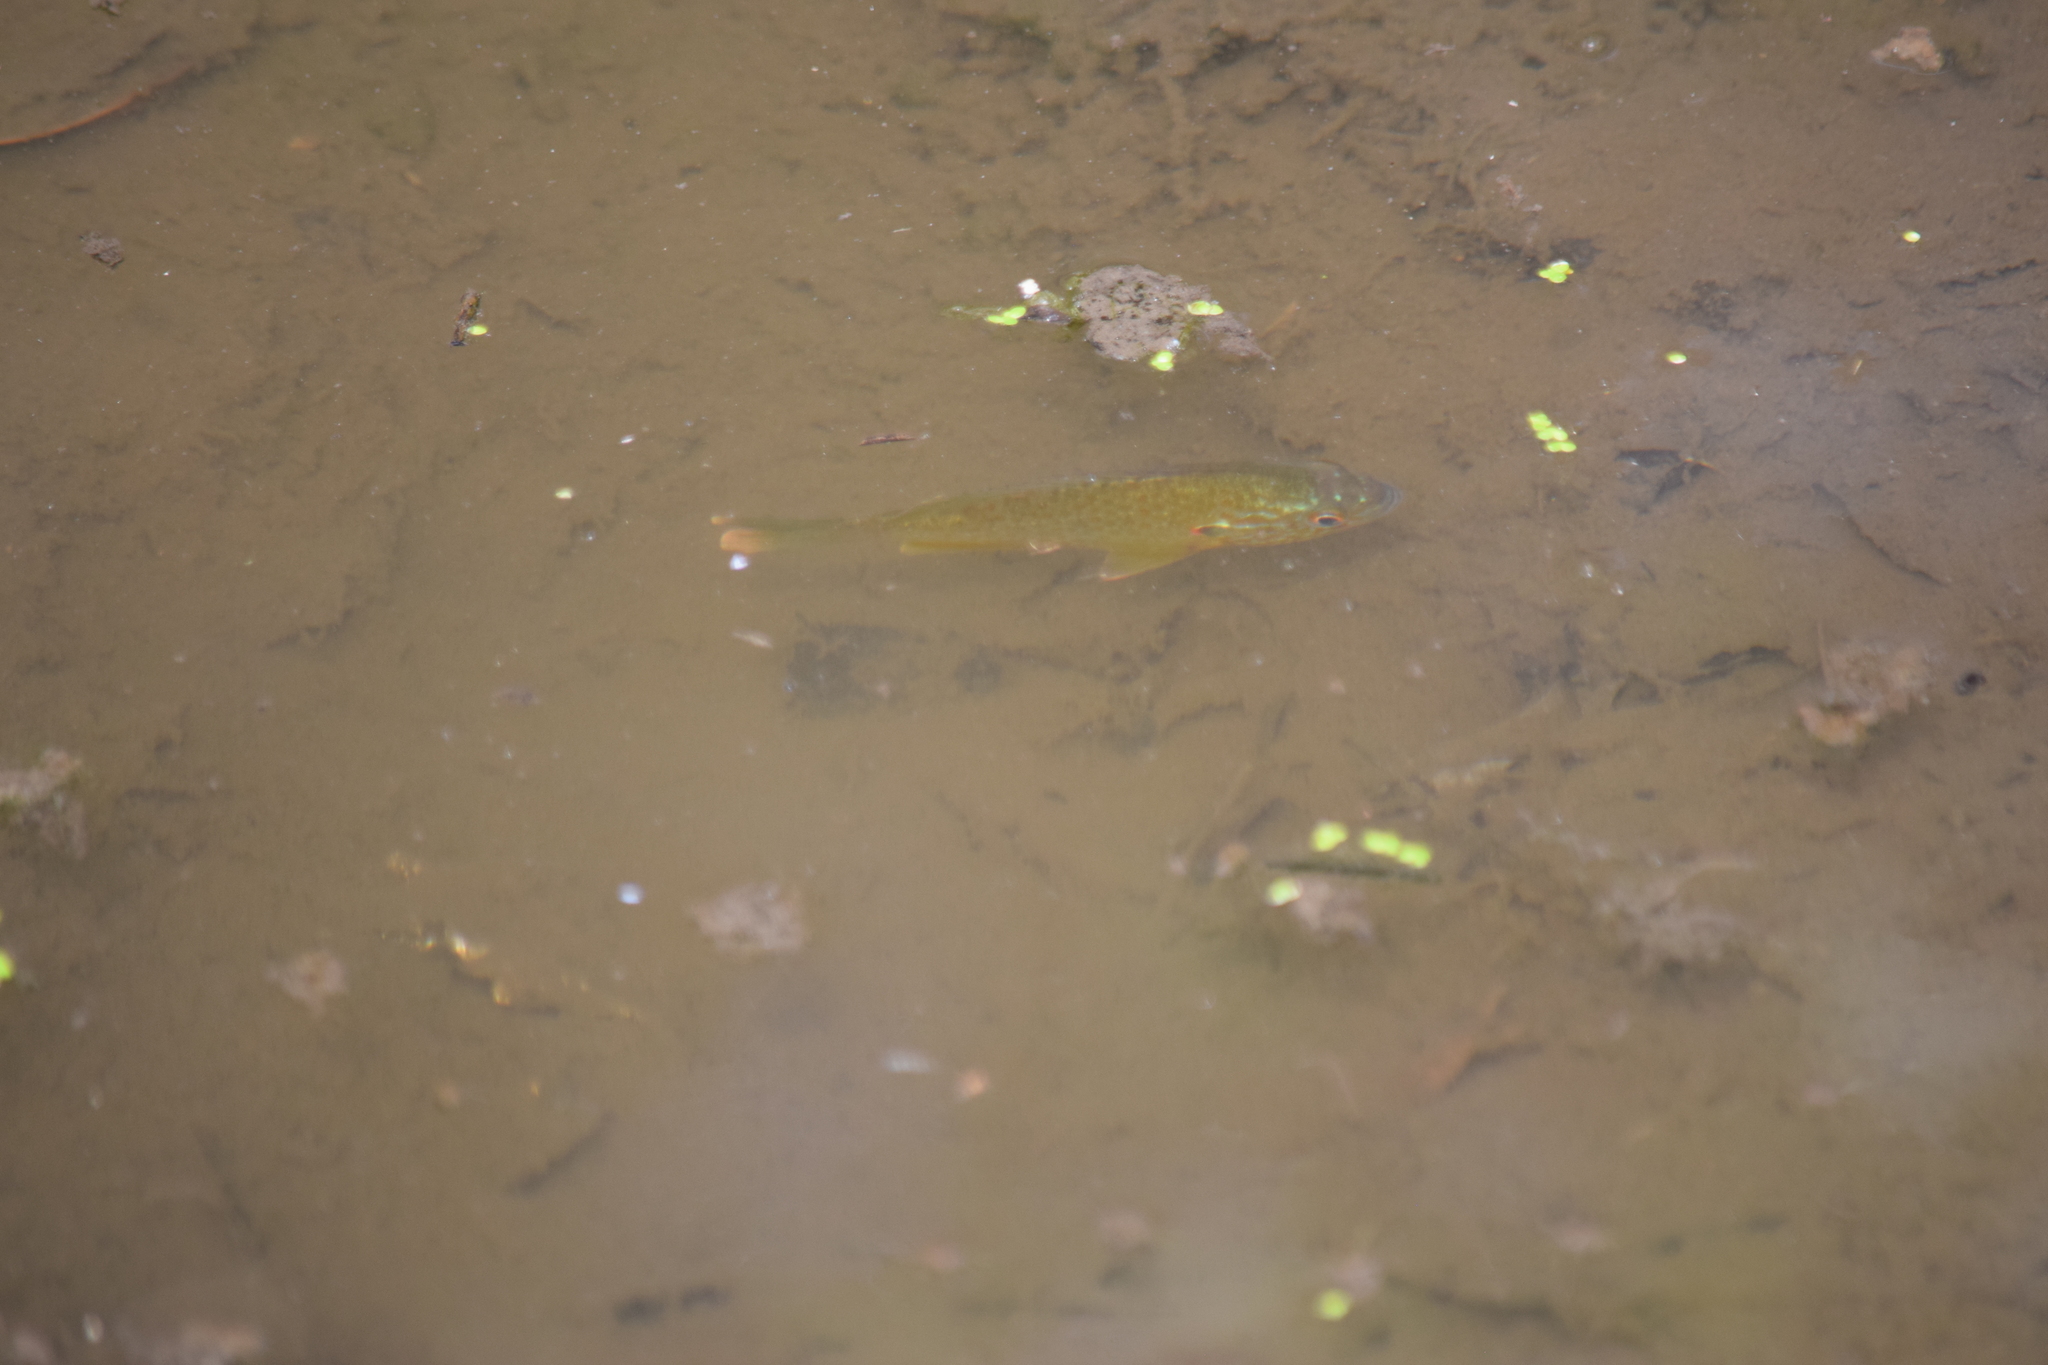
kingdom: Animalia
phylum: Chordata
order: Perciformes
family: Centrarchidae
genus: Lepomis
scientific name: Lepomis gibbosus
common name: Pumpkinseed
